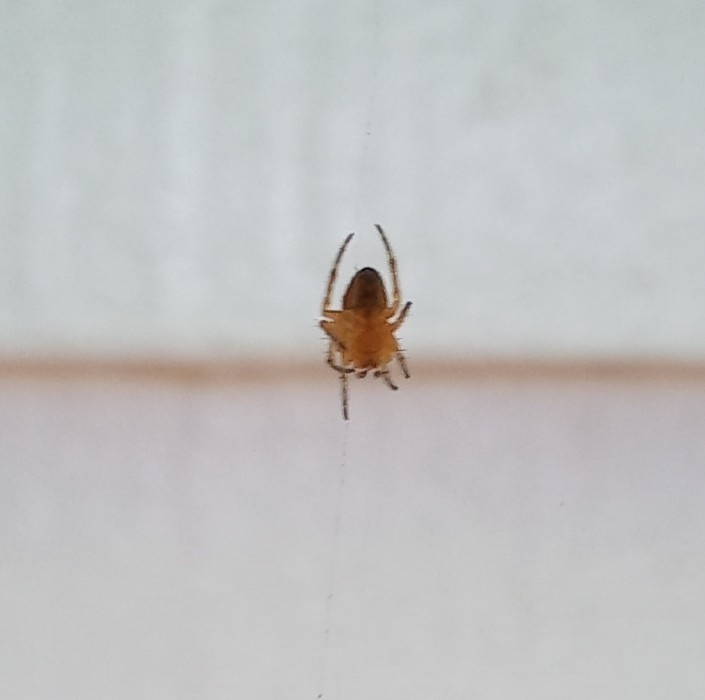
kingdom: Animalia
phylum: Arthropoda
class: Arachnida
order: Araneae
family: Araneidae
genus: Araneus
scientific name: Araneus
